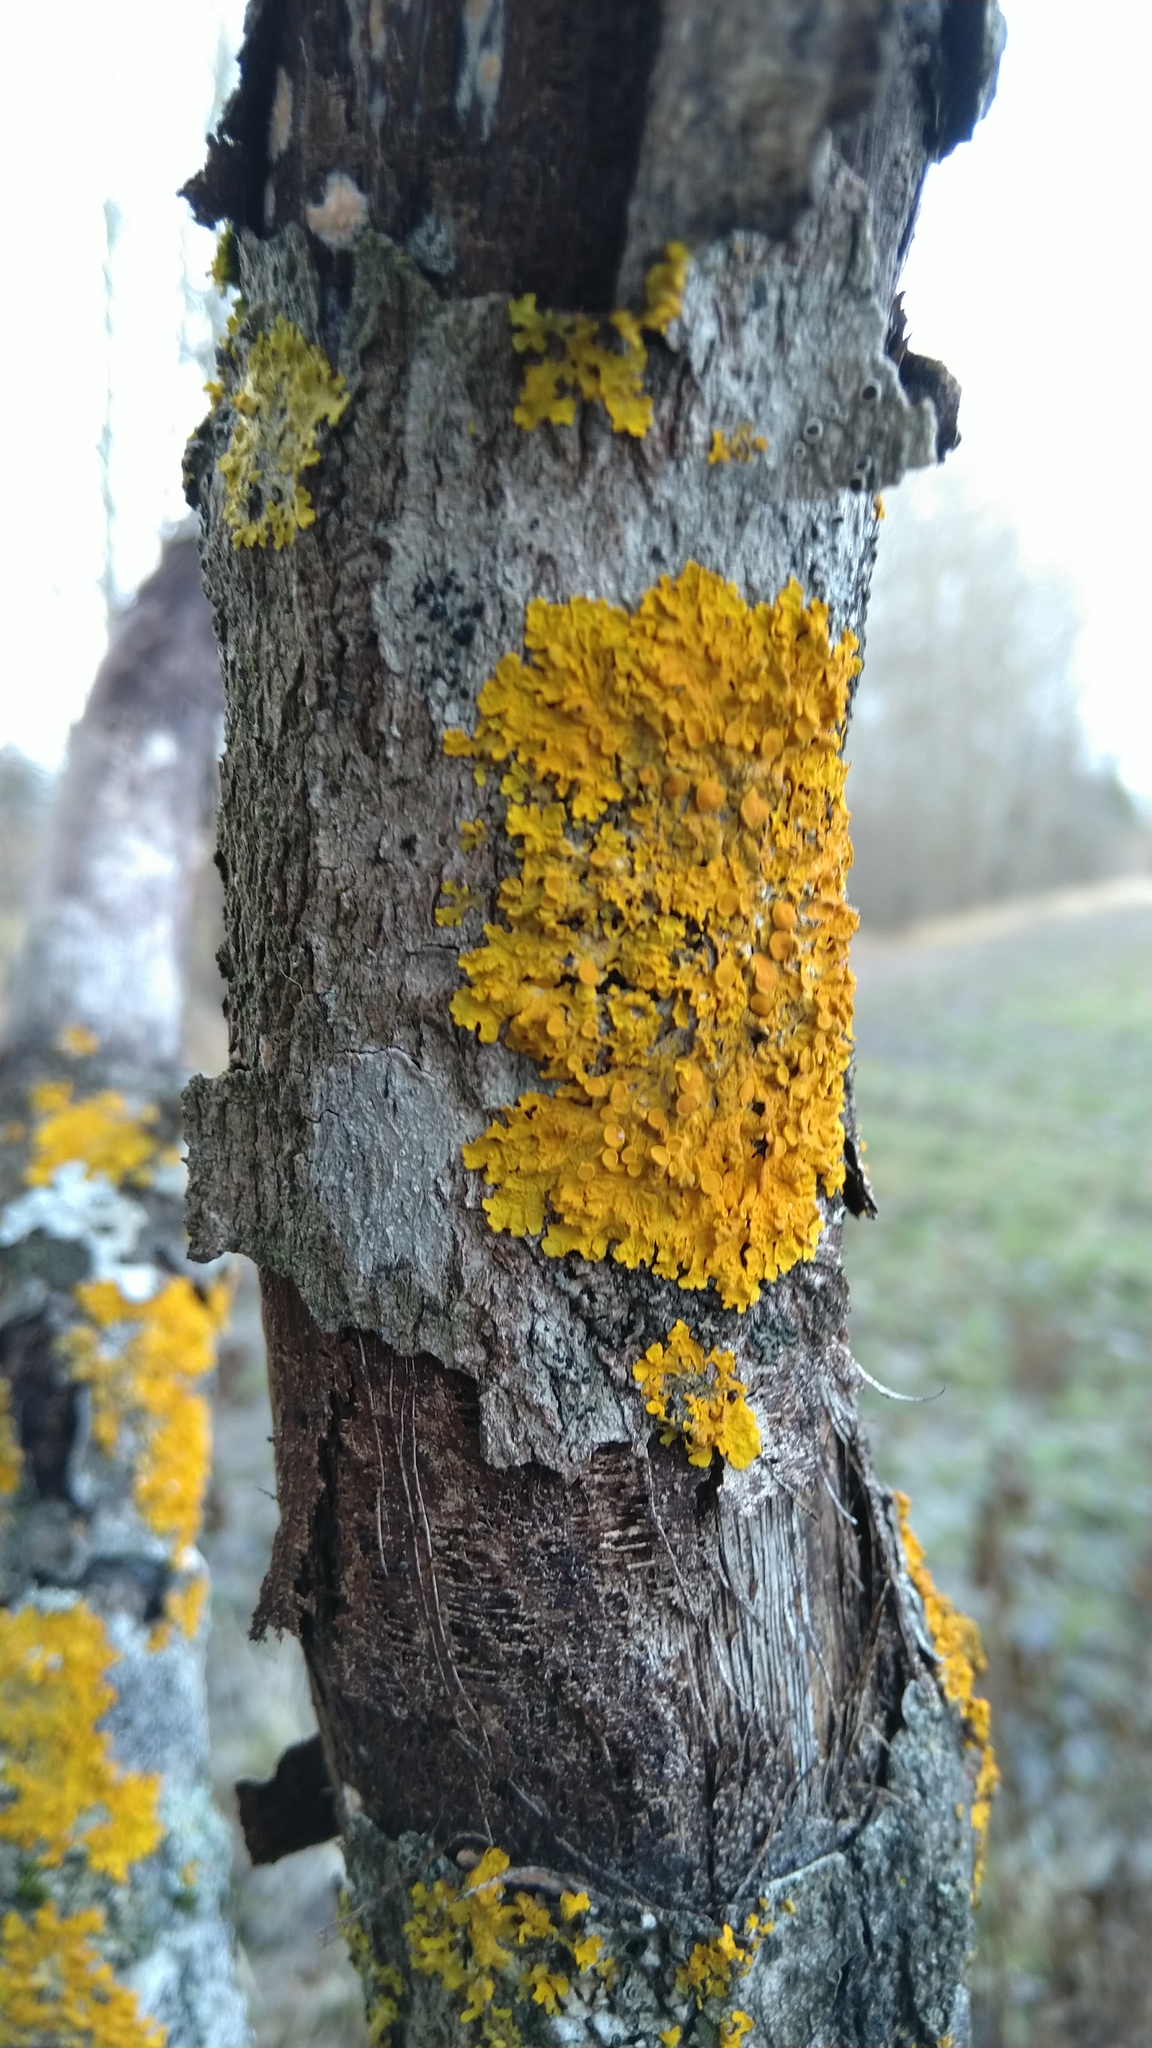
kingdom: Fungi
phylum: Ascomycota
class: Lecanoromycetes
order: Teloschistales
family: Teloschistaceae
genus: Xanthoria
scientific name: Xanthoria parietina
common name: Common orange lichen
